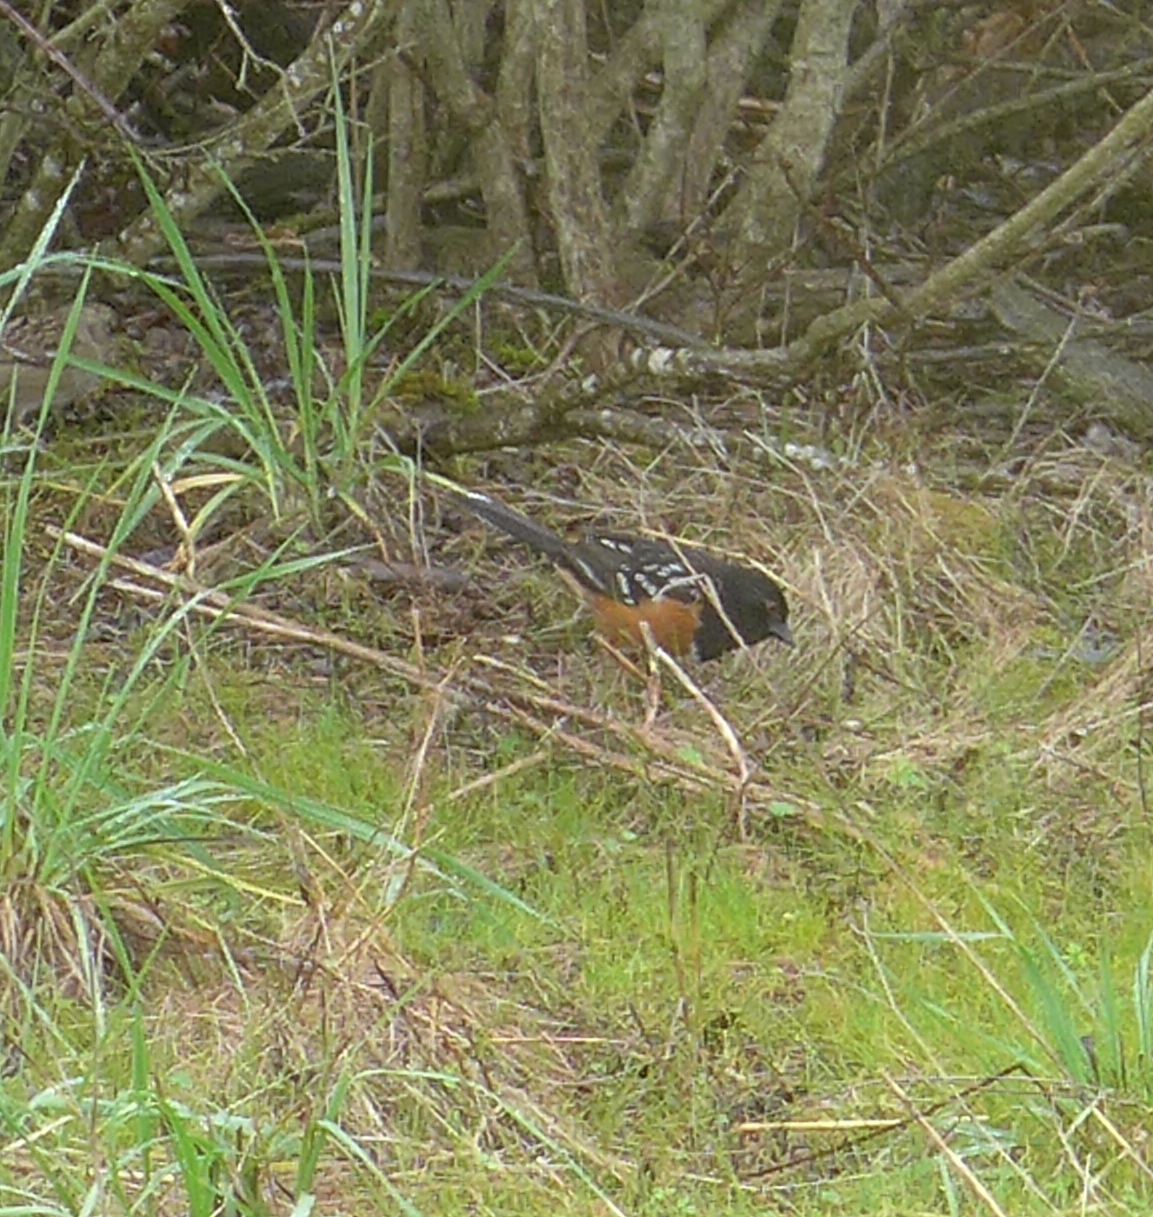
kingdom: Animalia
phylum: Chordata
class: Aves
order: Passeriformes
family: Passerellidae
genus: Pipilo
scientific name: Pipilo maculatus
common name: Spotted towhee
